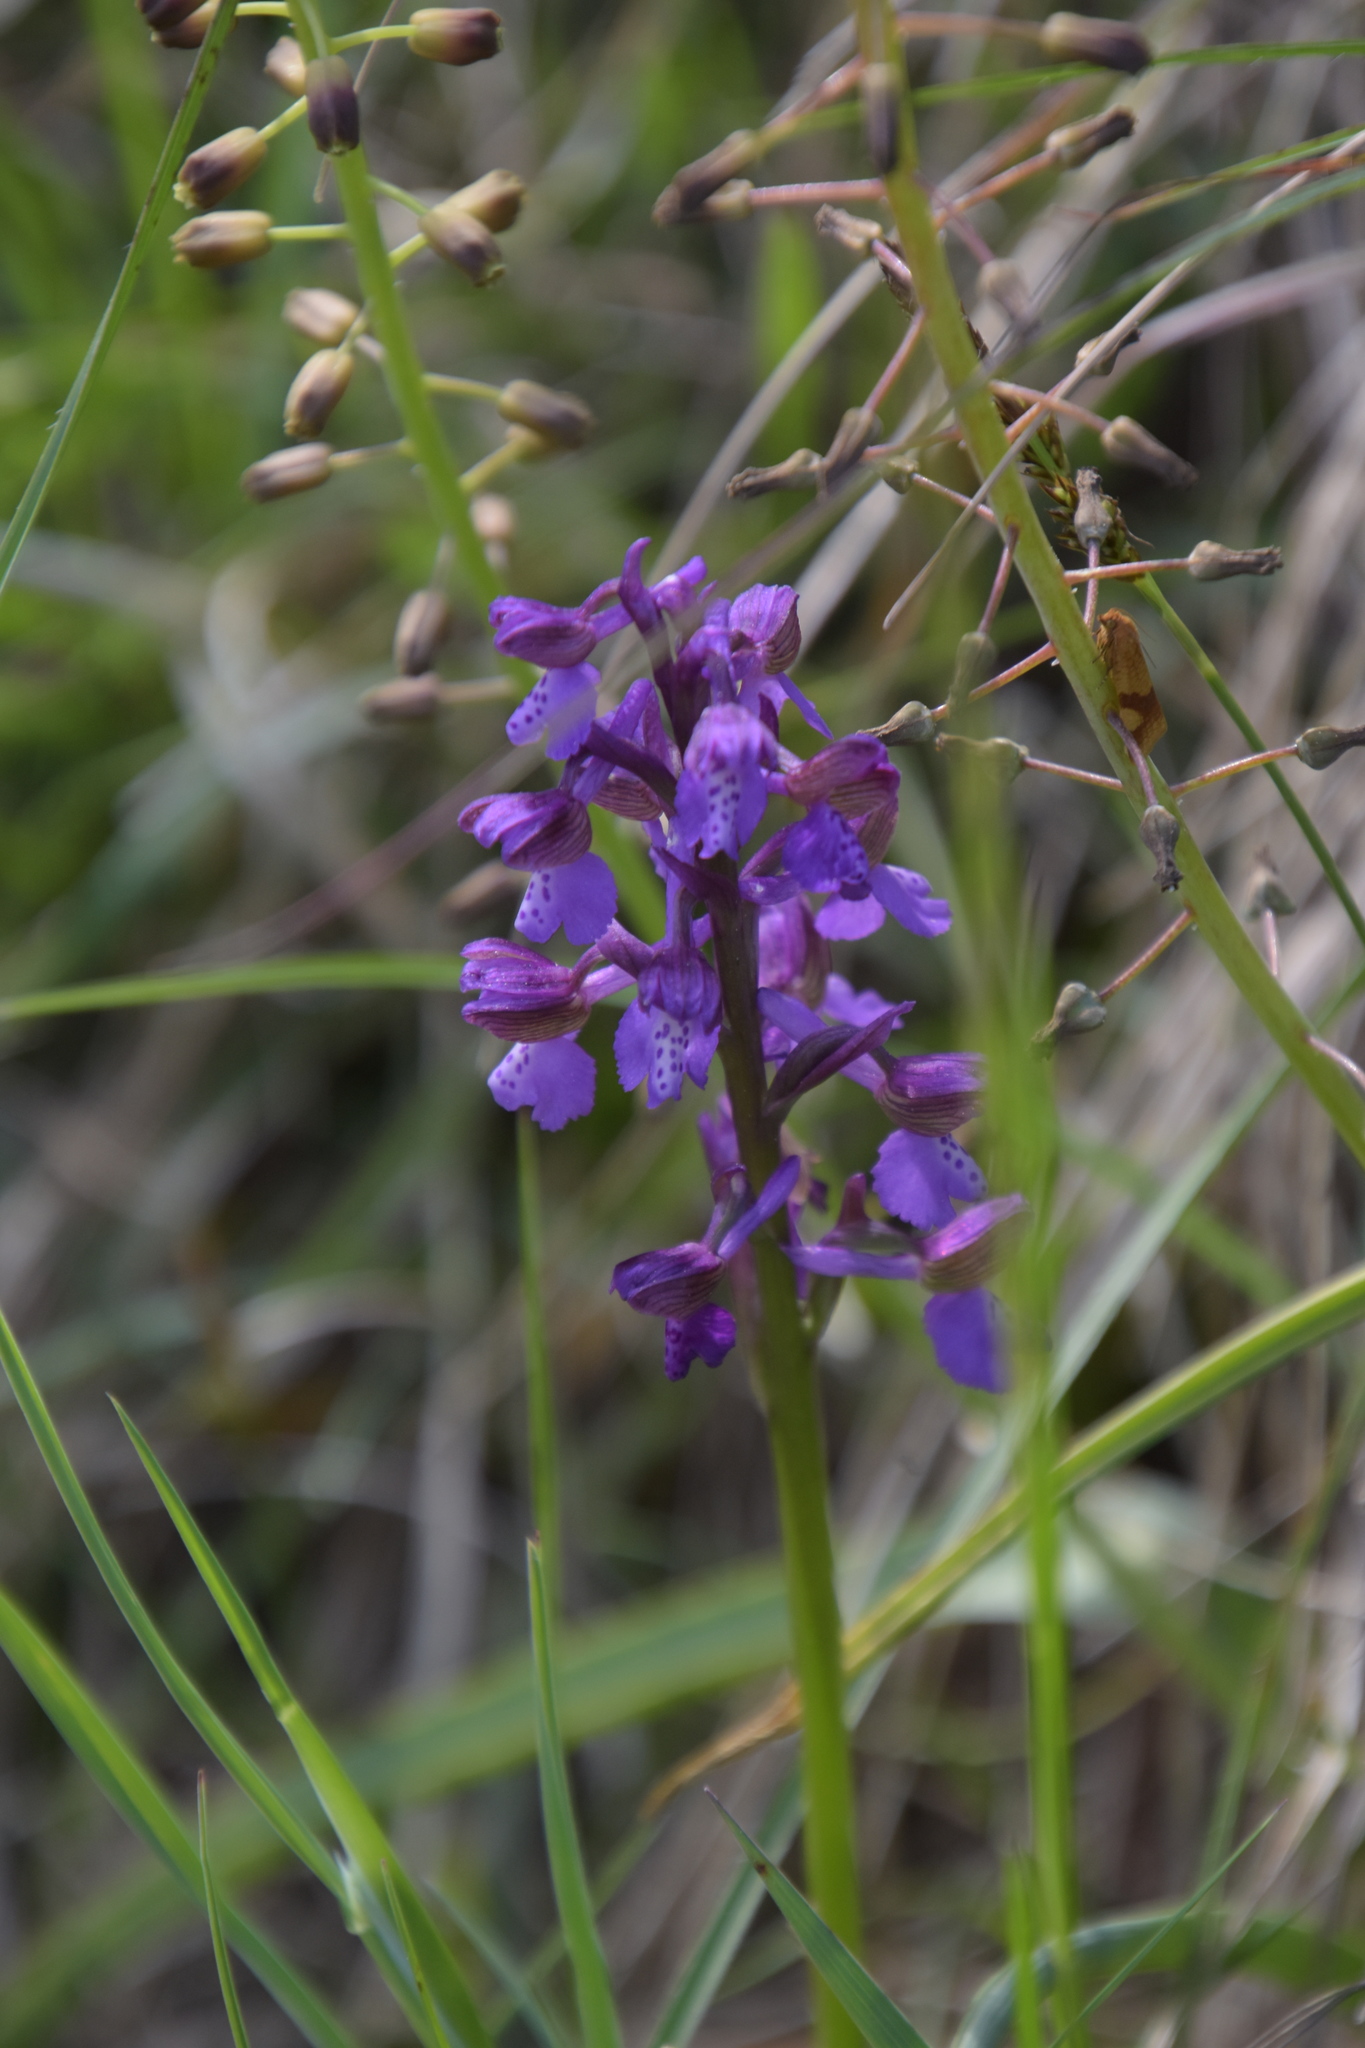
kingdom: Plantae
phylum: Tracheophyta
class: Liliopsida
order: Asparagales
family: Orchidaceae
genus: Anacamptis
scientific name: Anacamptis morio
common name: Green-winged orchid
